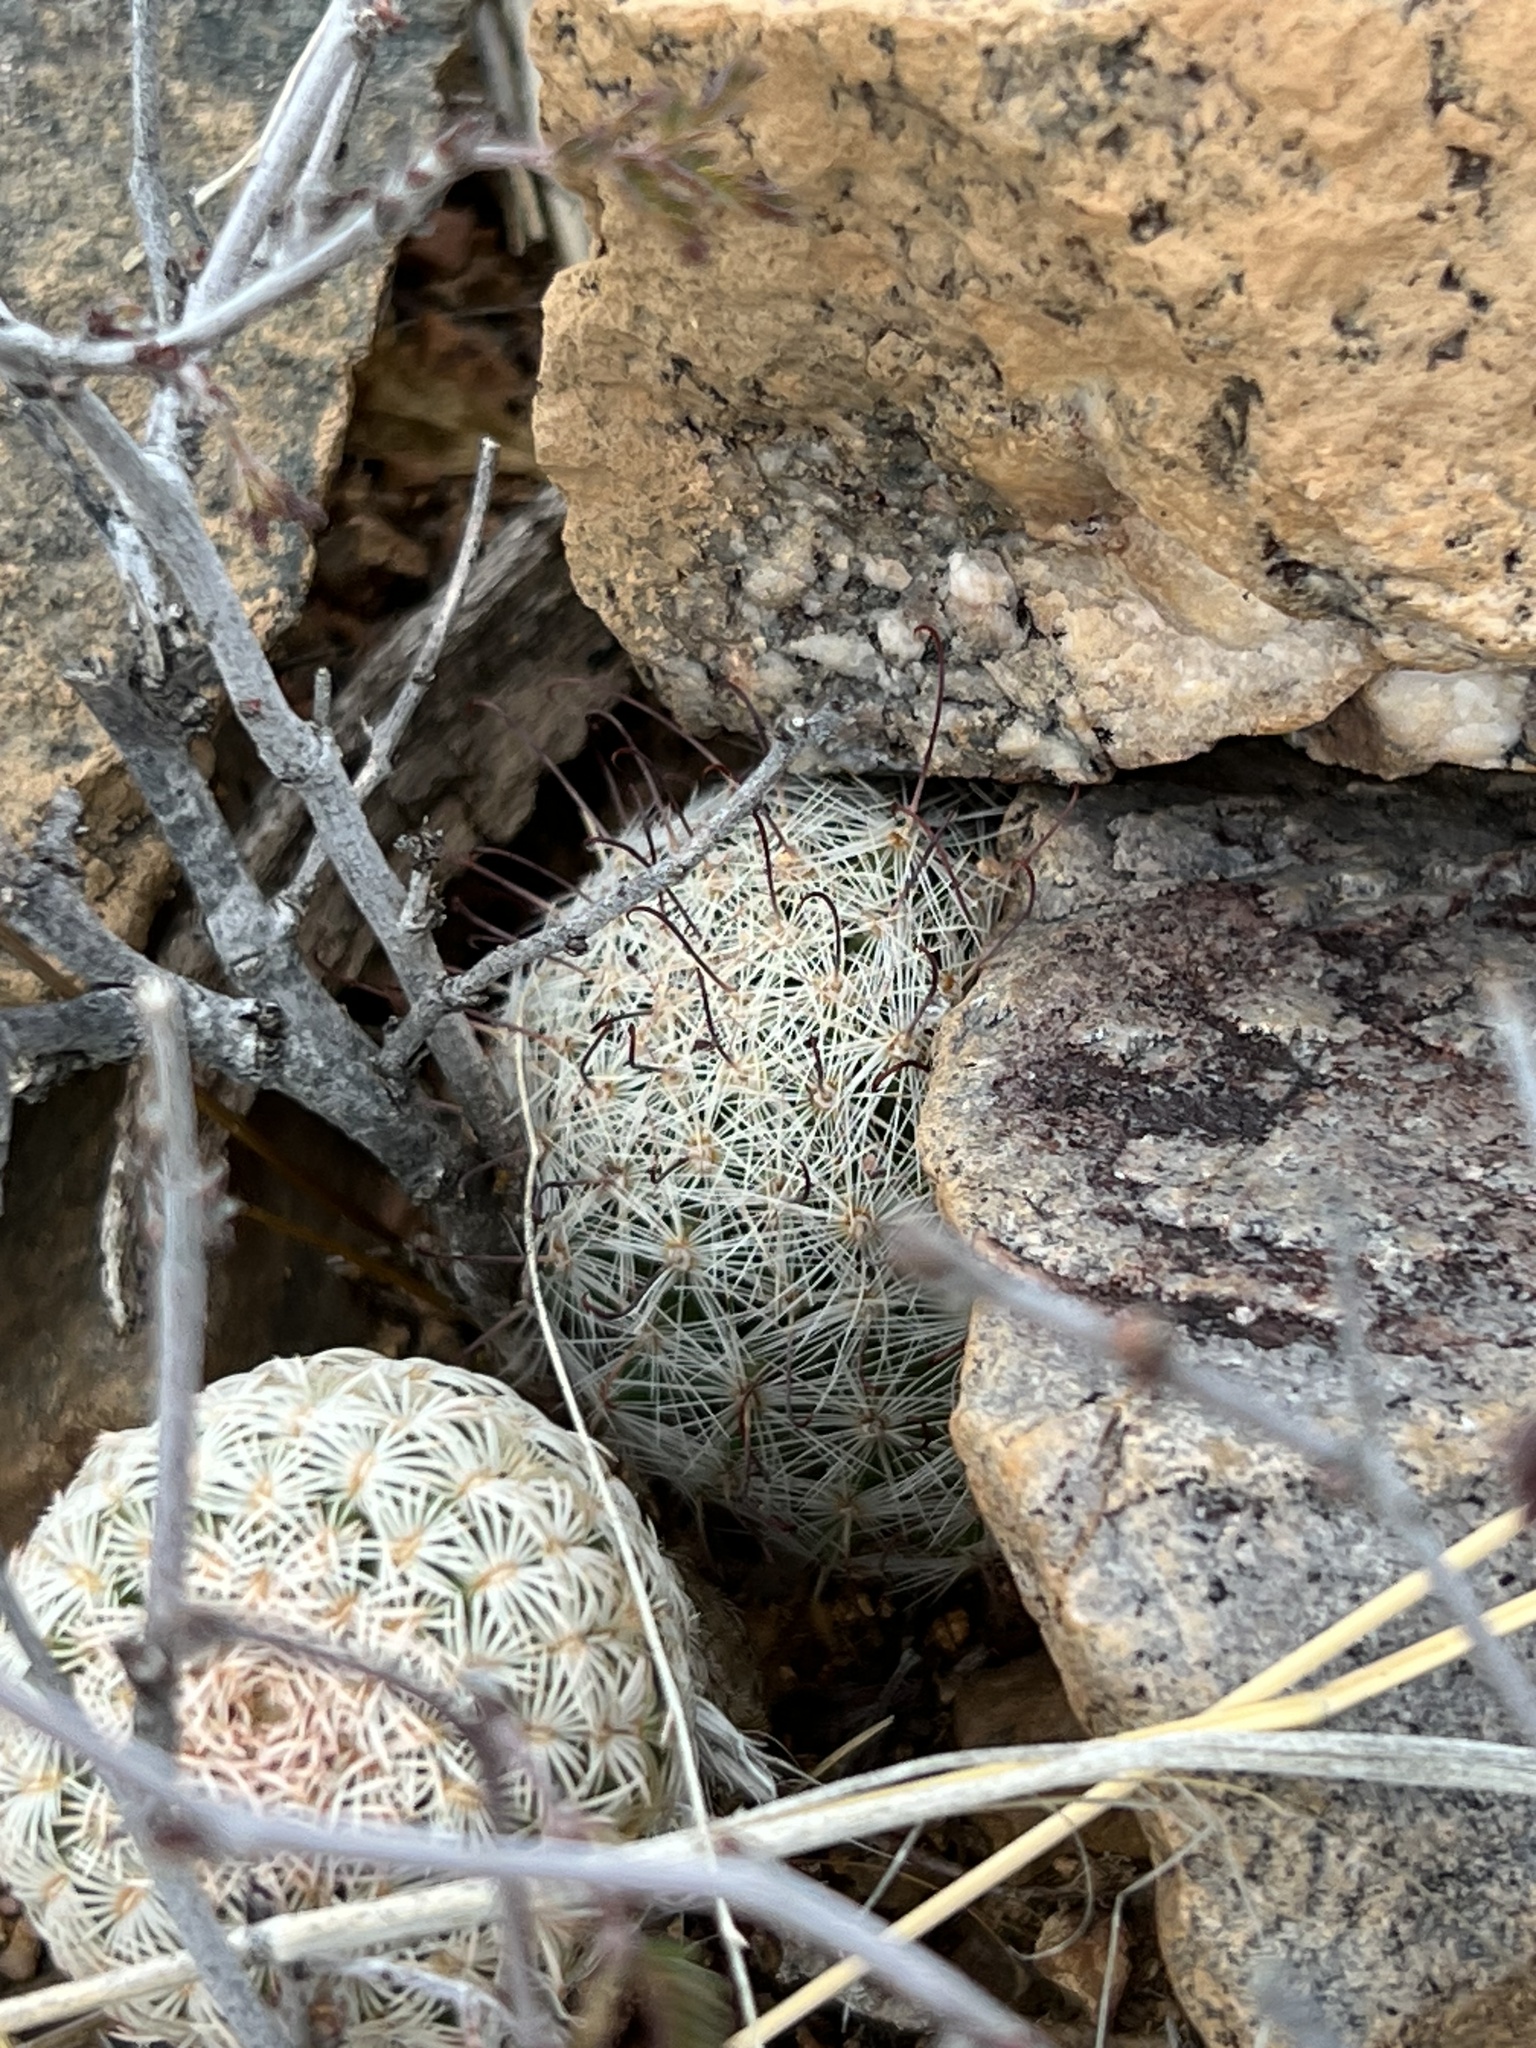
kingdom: Plantae
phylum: Tracheophyta
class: Magnoliopsida
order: Caryophyllales
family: Cactaceae
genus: Cochemiea
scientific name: Cochemiea grahamii
